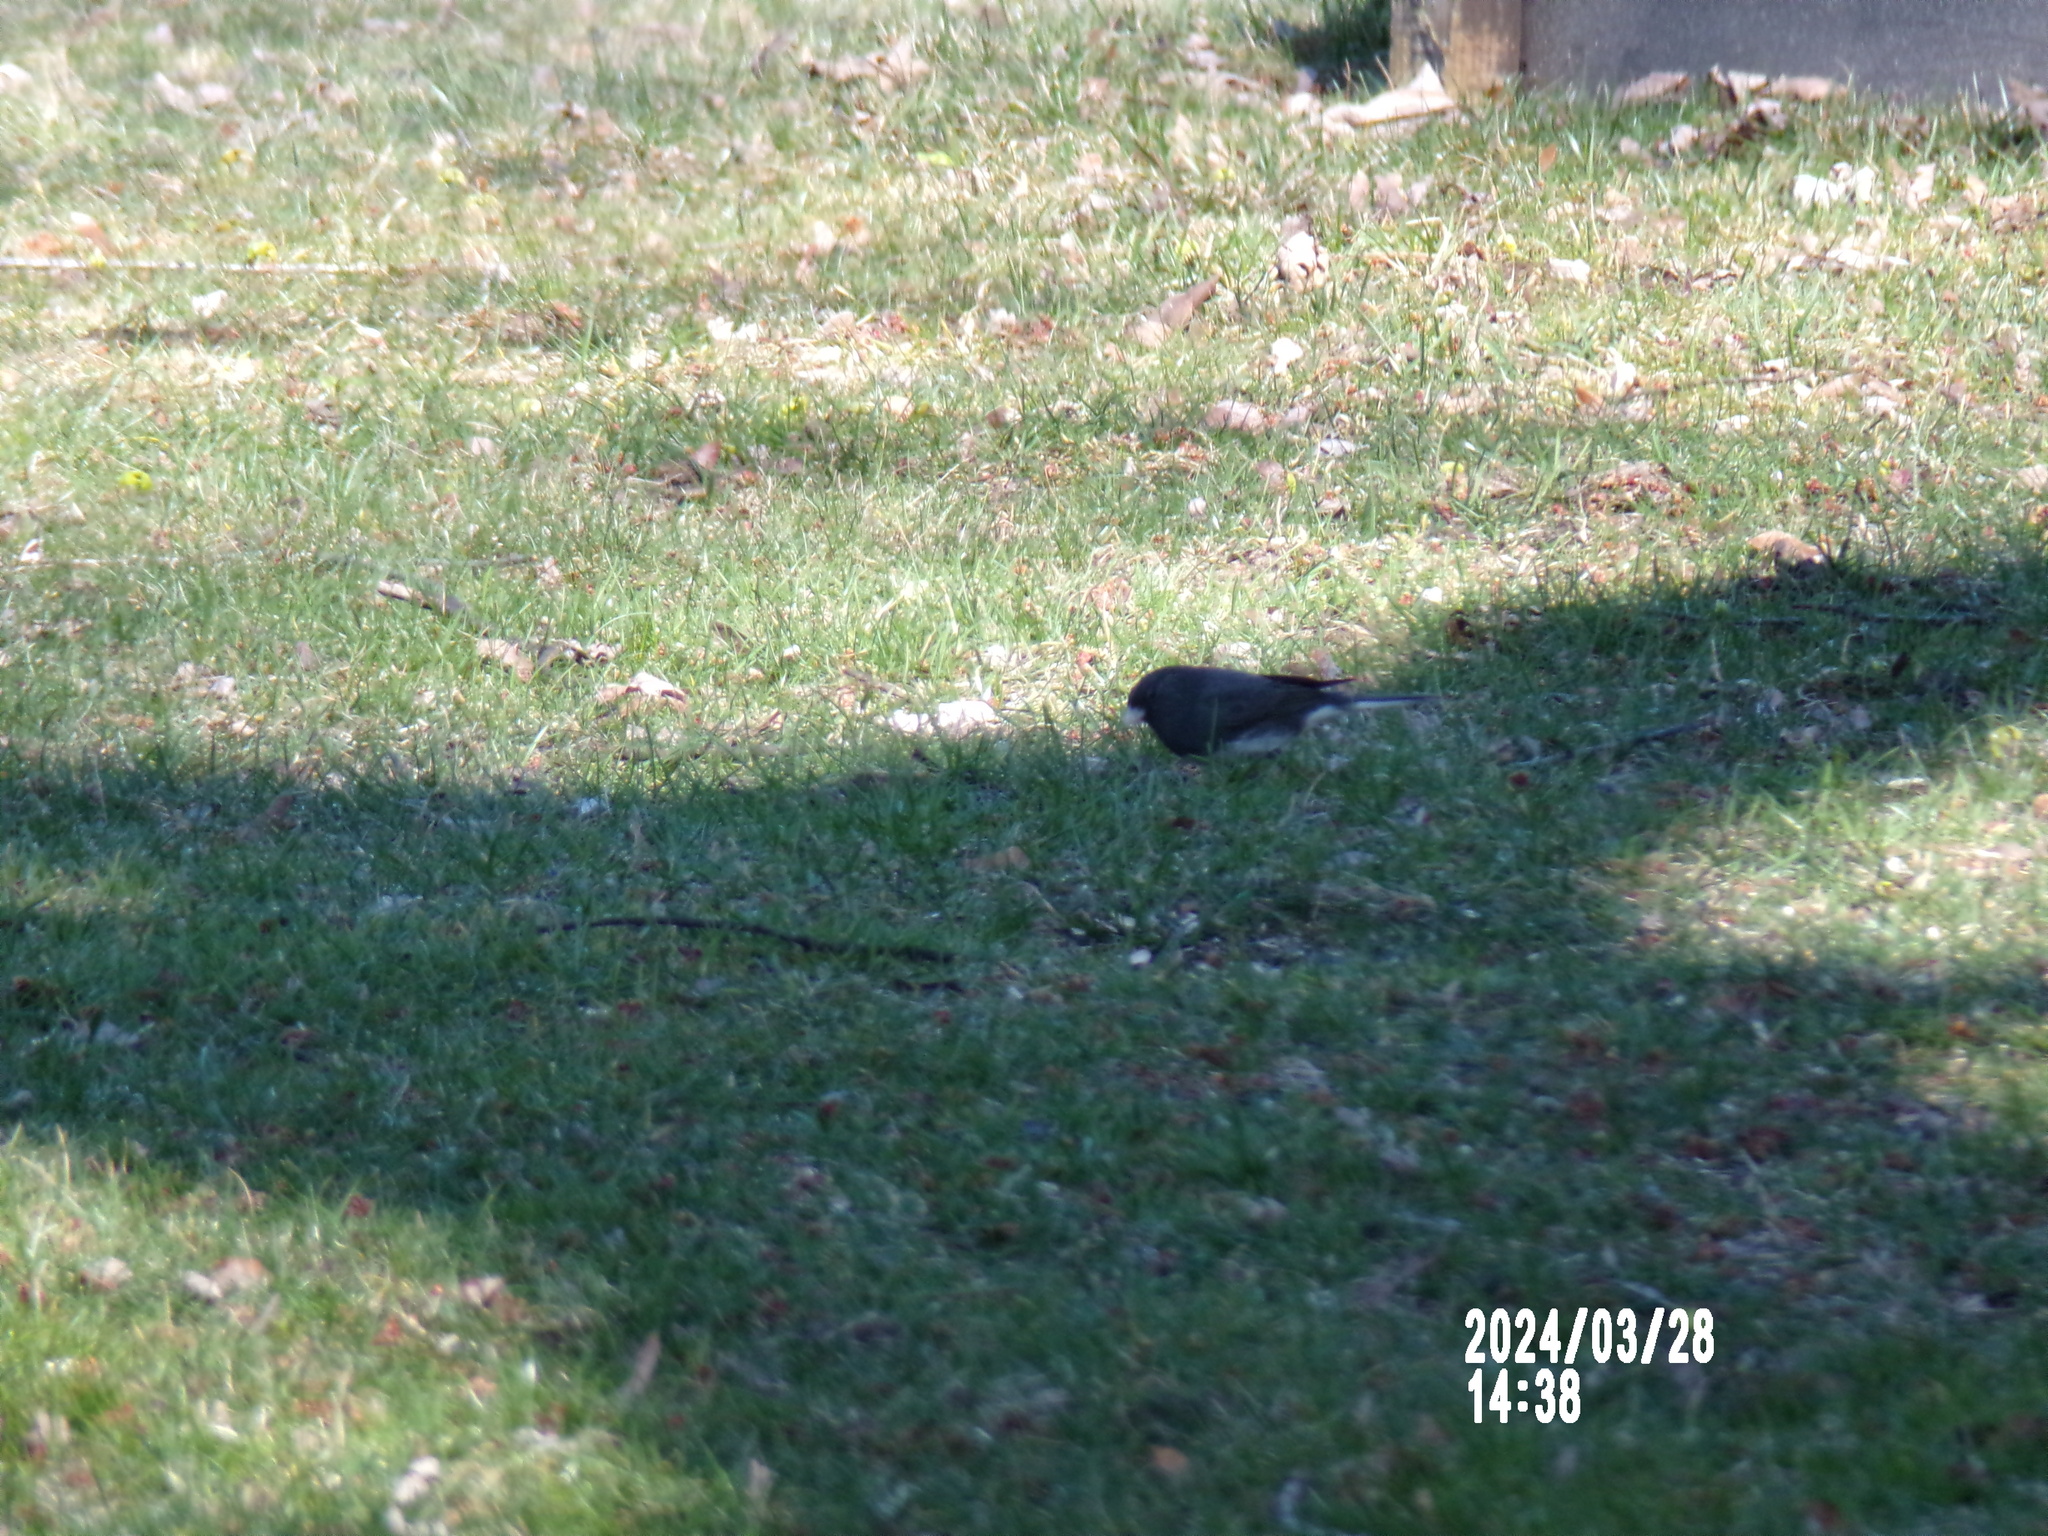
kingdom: Animalia
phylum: Chordata
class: Aves
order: Passeriformes
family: Passerellidae
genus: Junco
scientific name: Junco hyemalis
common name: Dark-eyed junco
